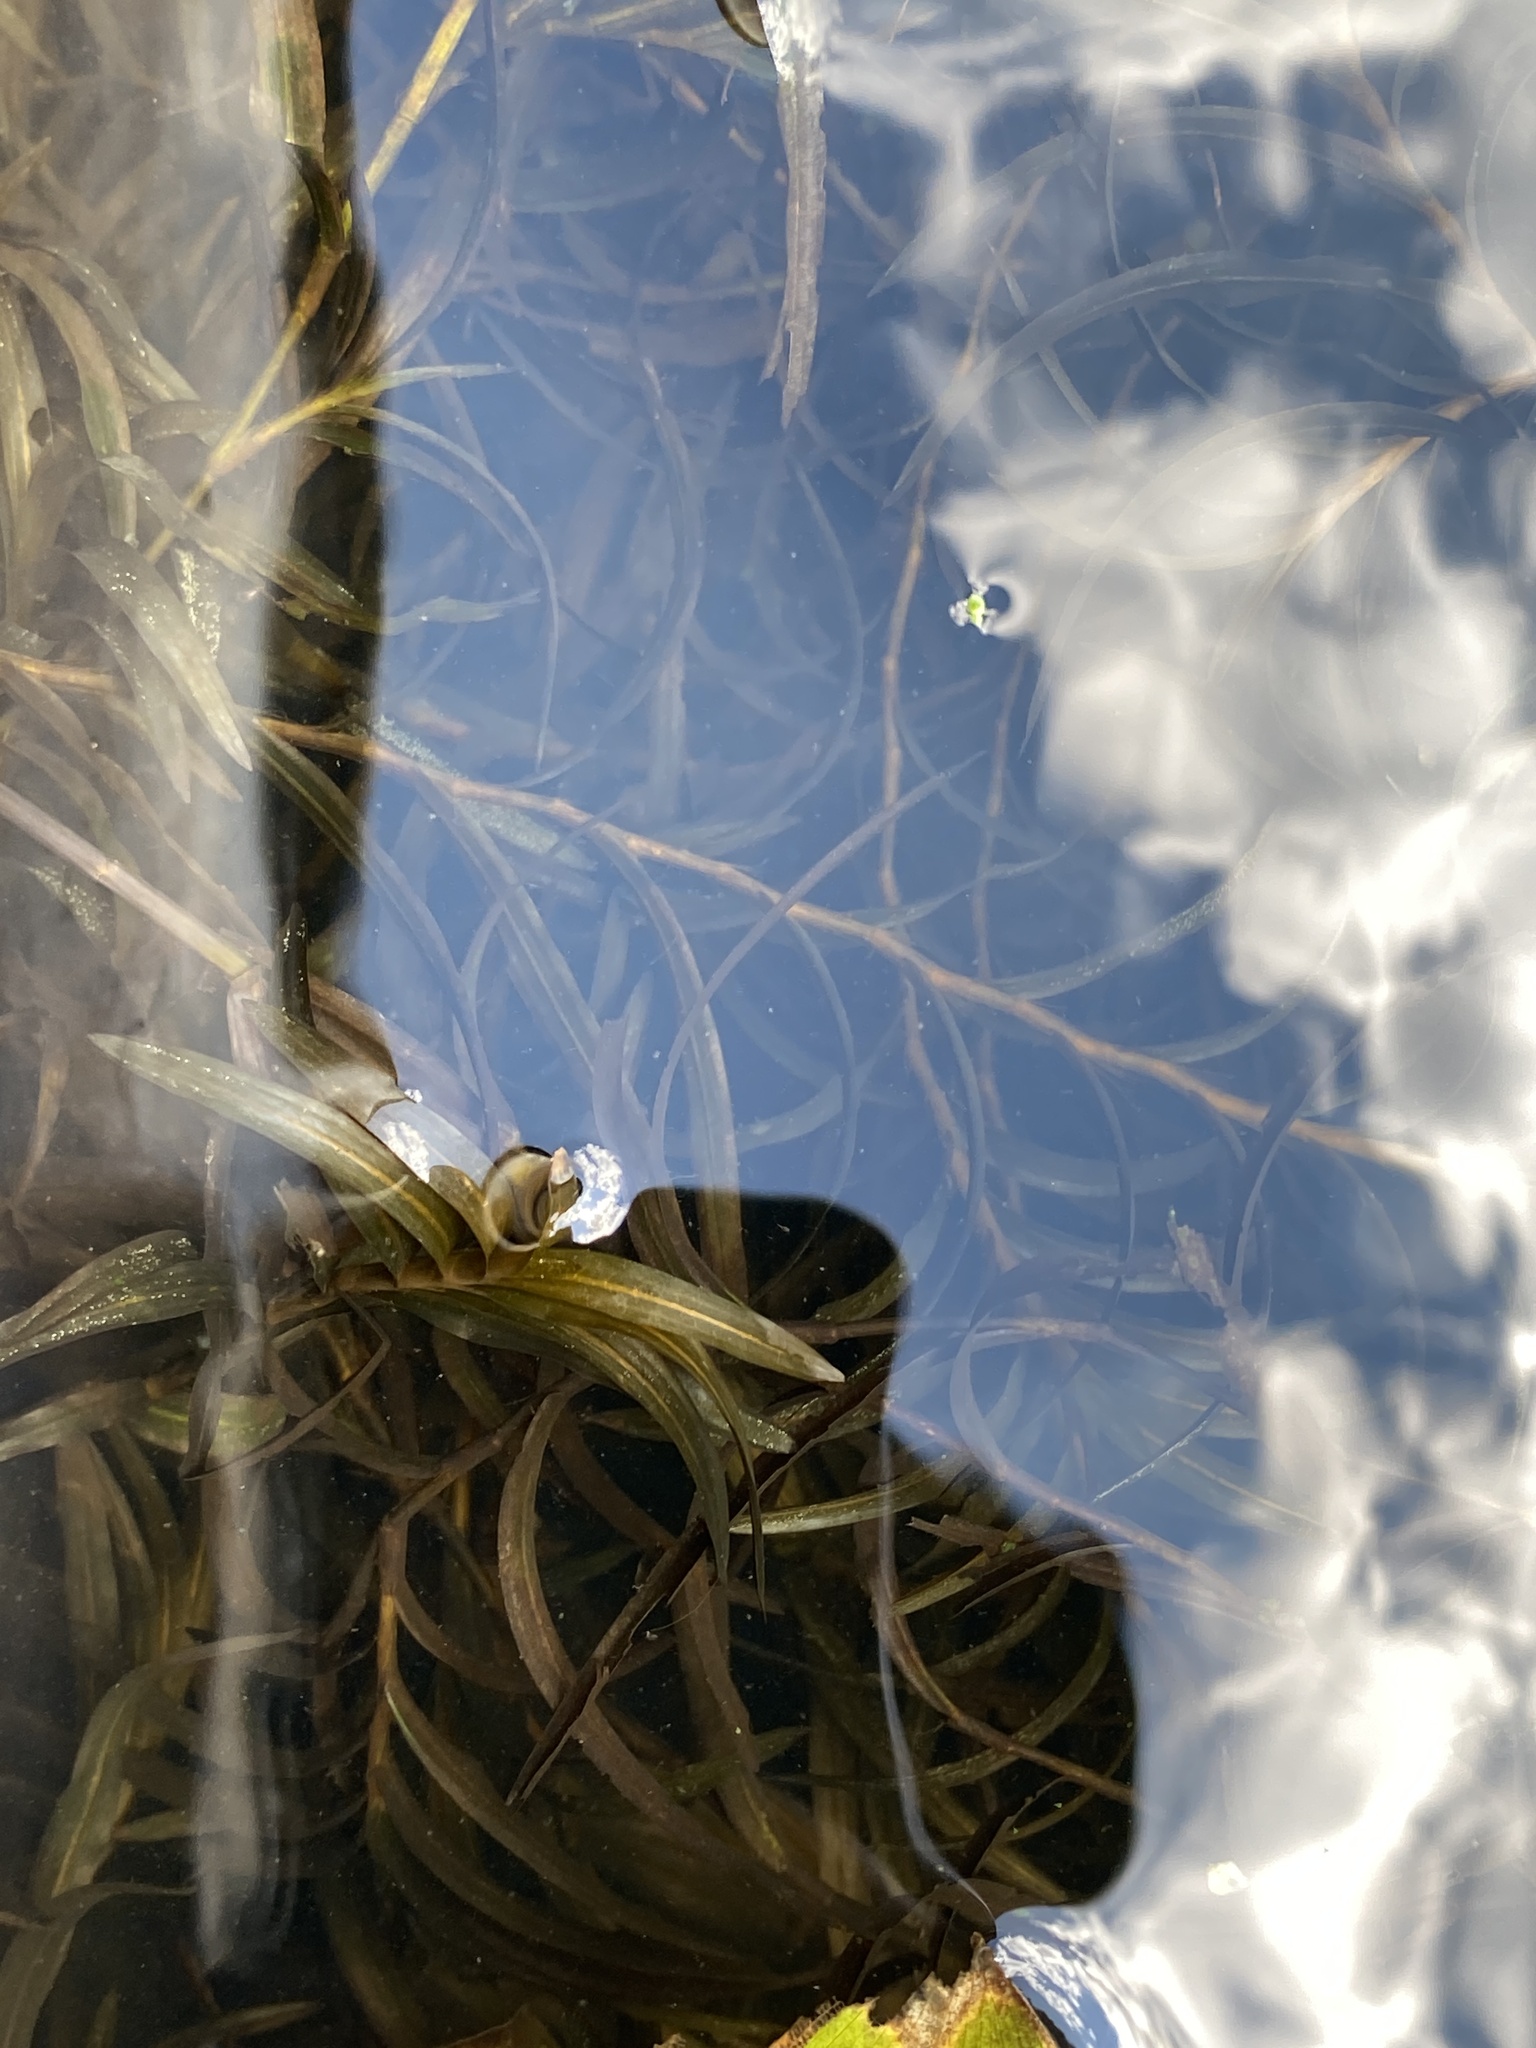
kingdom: Plantae
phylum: Tracheophyta
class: Liliopsida
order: Alismatales
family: Potamogetonaceae
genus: Potamogeton
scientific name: Potamogeton robbinsii
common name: Fern pondweed
